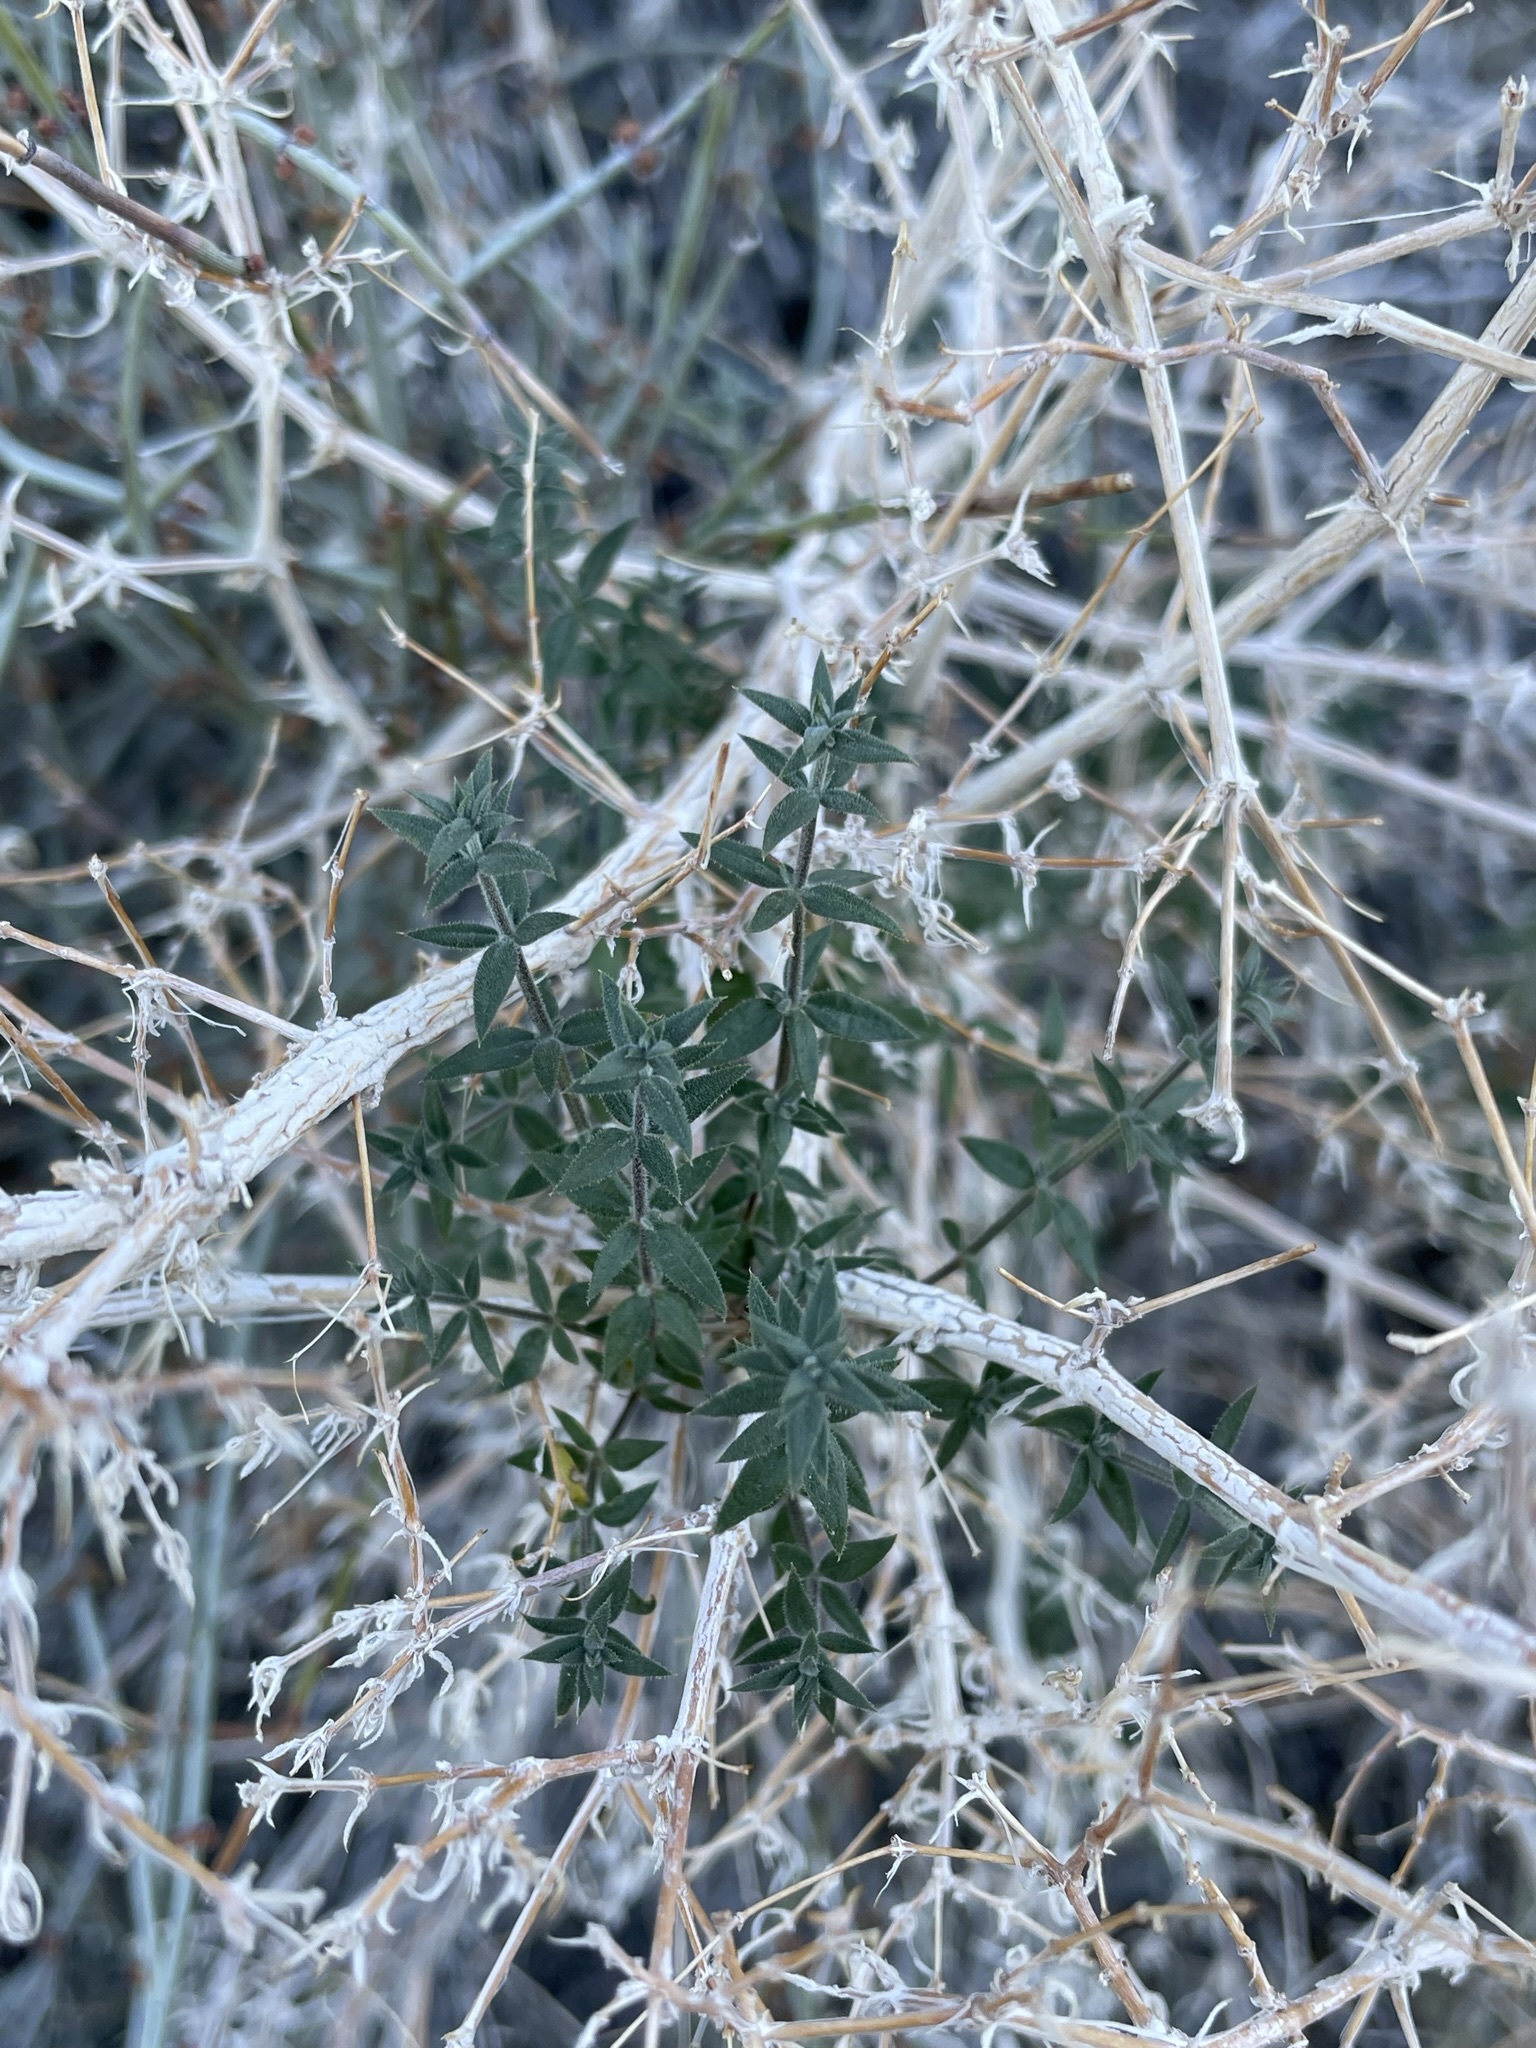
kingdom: Plantae
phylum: Tracheophyta
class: Magnoliopsida
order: Gentianales
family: Rubiaceae
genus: Galium
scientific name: Galium stellatum
